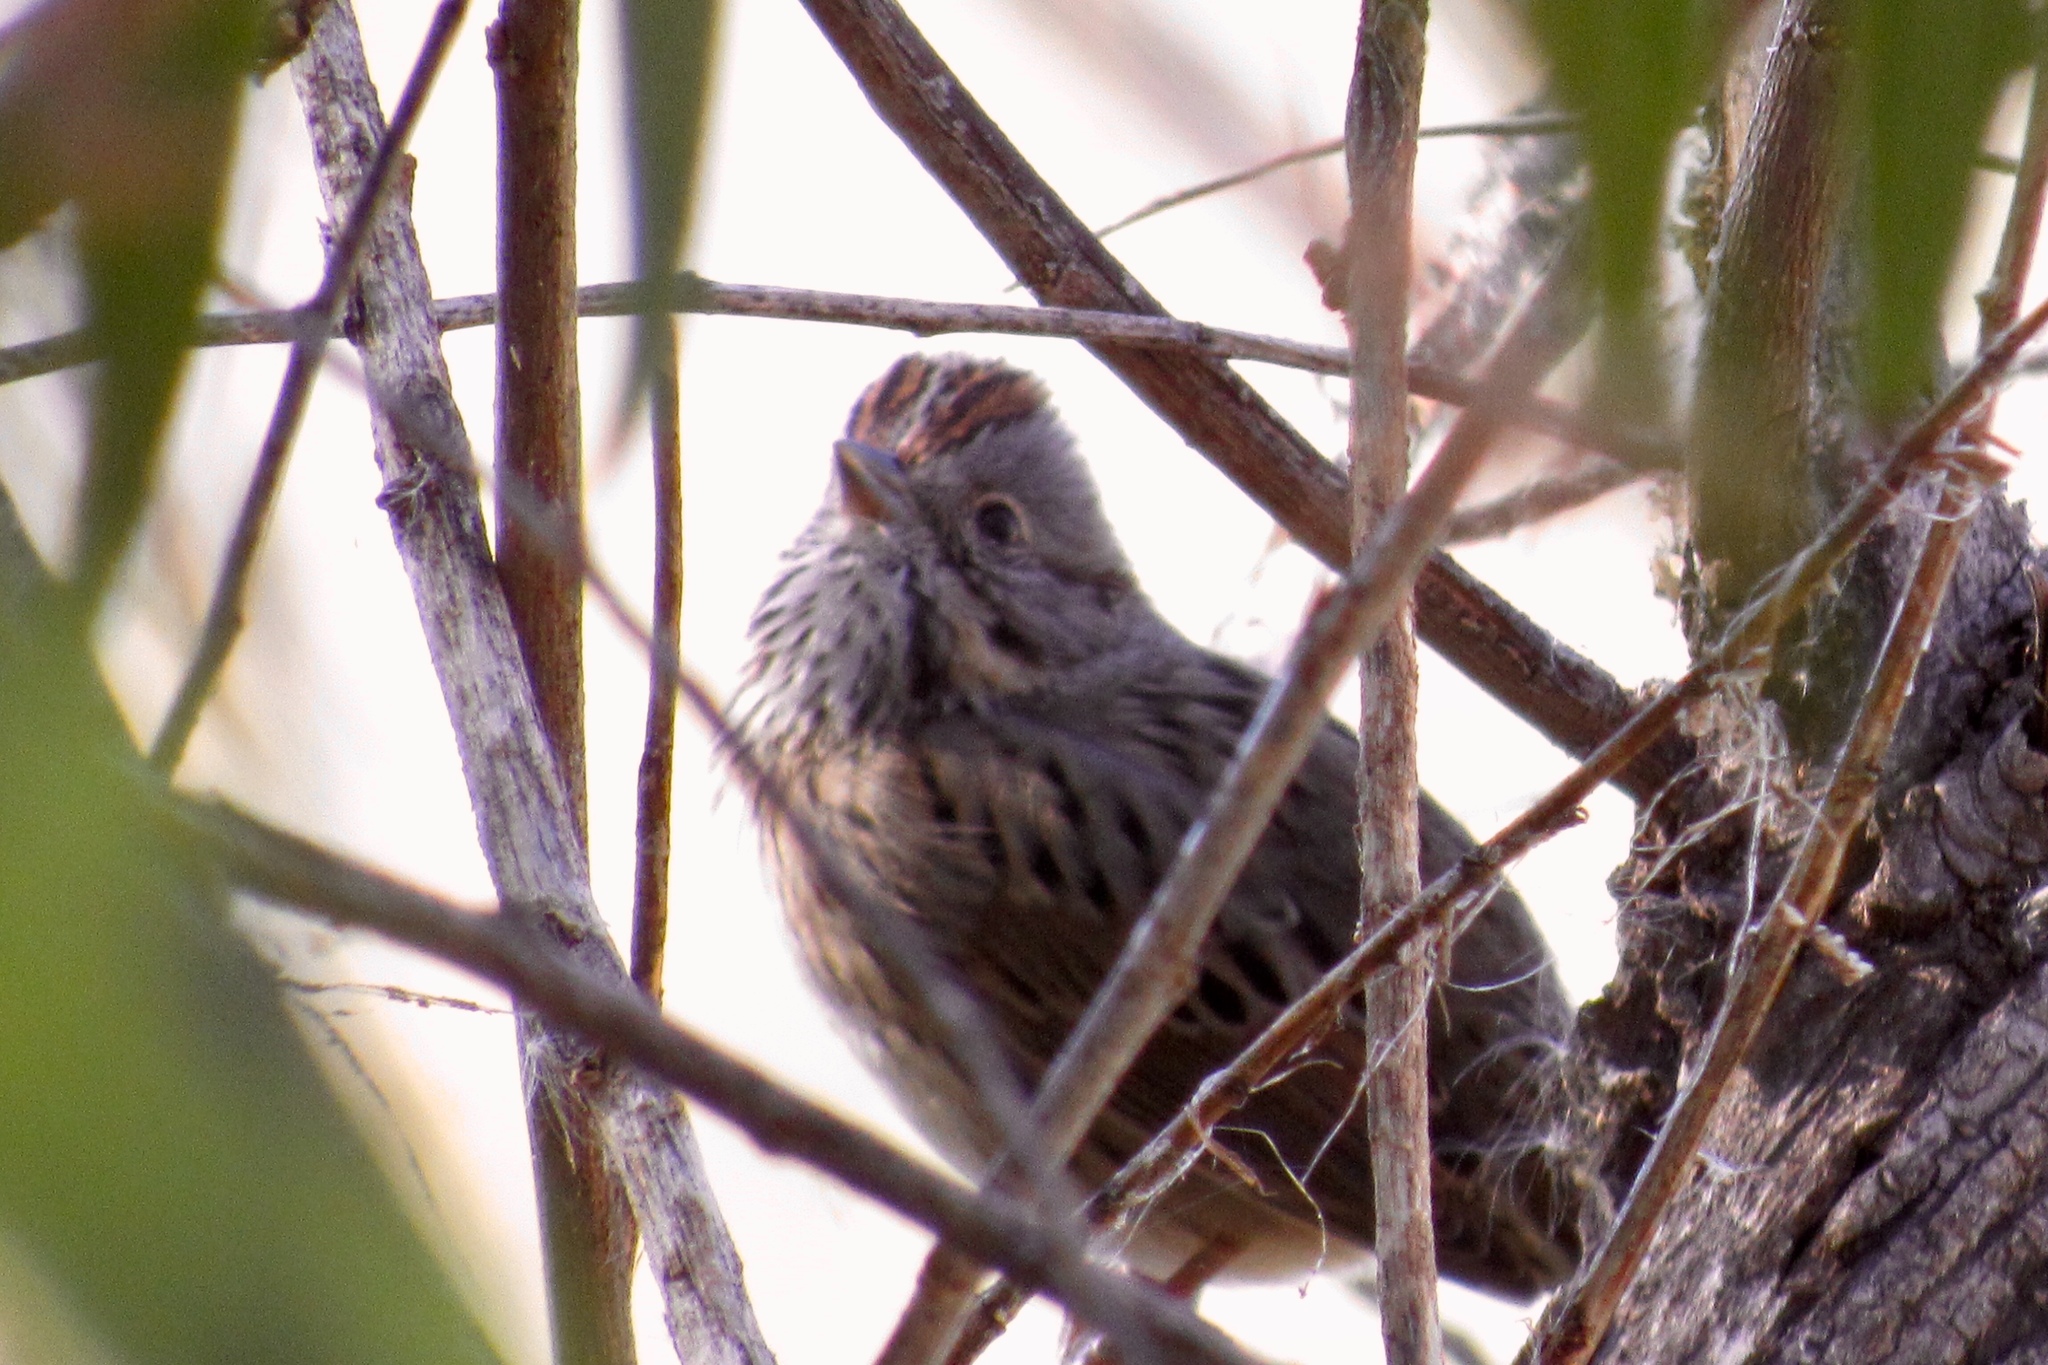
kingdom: Animalia
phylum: Chordata
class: Aves
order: Passeriformes
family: Passerellidae
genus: Melospiza
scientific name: Melospiza lincolnii
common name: Lincoln's sparrow
